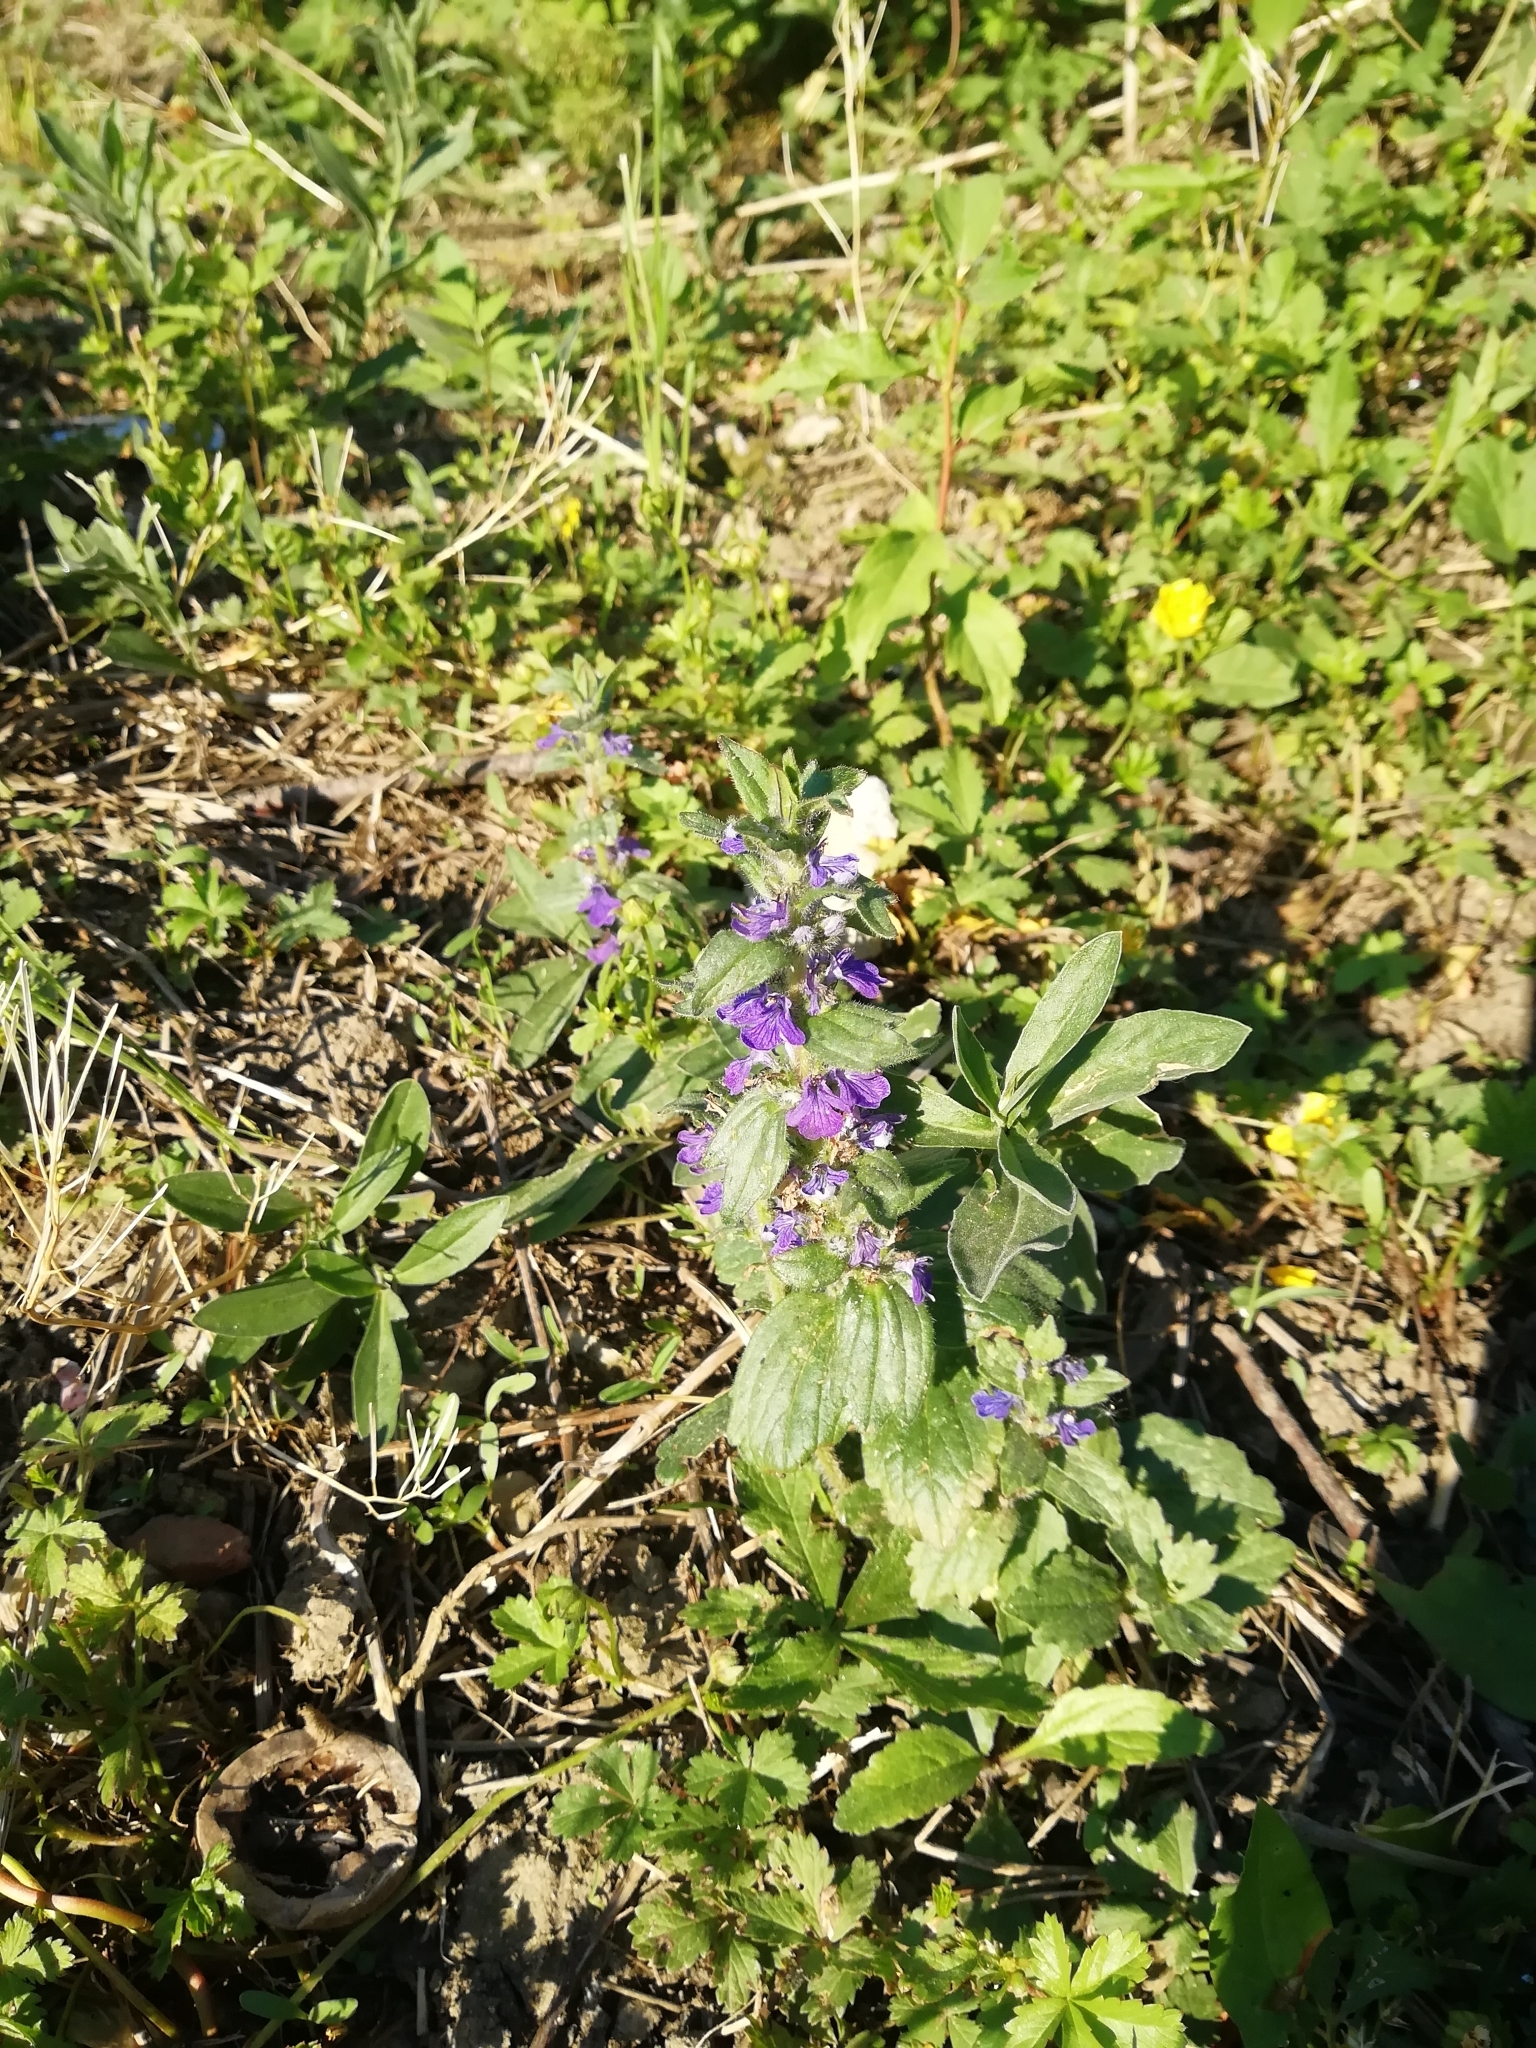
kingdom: Plantae
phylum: Tracheophyta
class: Magnoliopsida
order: Lamiales
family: Lamiaceae
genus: Ajuga
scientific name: Ajuga genevensis
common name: Blue bugle
